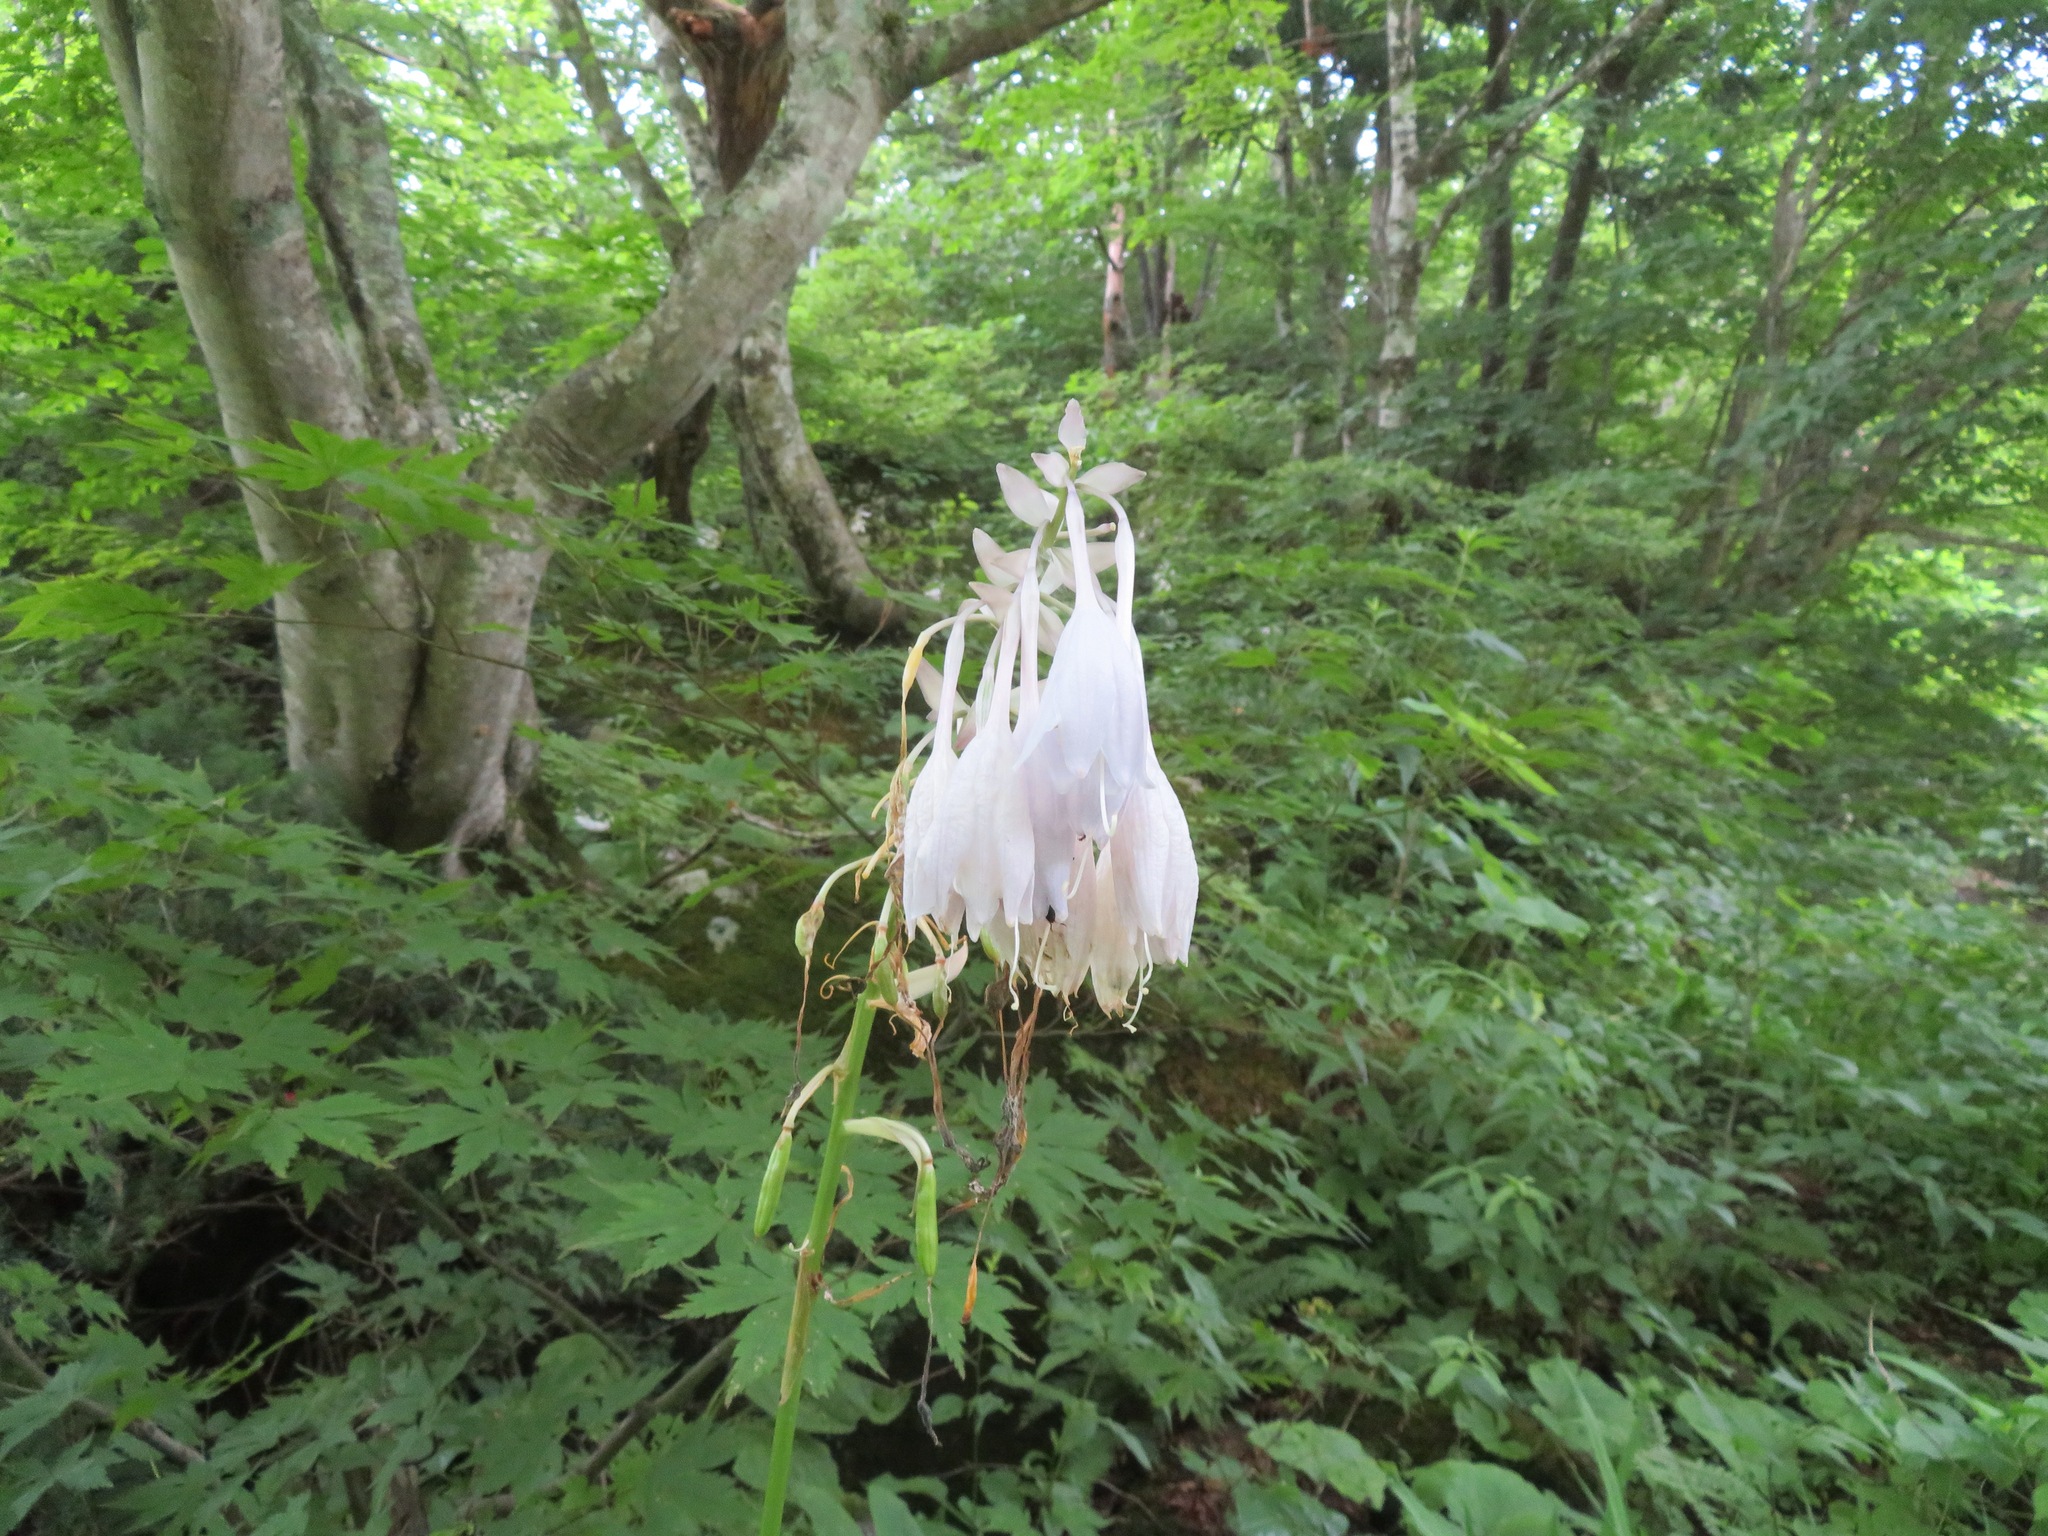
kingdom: Plantae
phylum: Tracheophyta
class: Liliopsida
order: Asparagales
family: Asparagaceae
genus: Hosta
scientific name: Hosta sieboldiana
